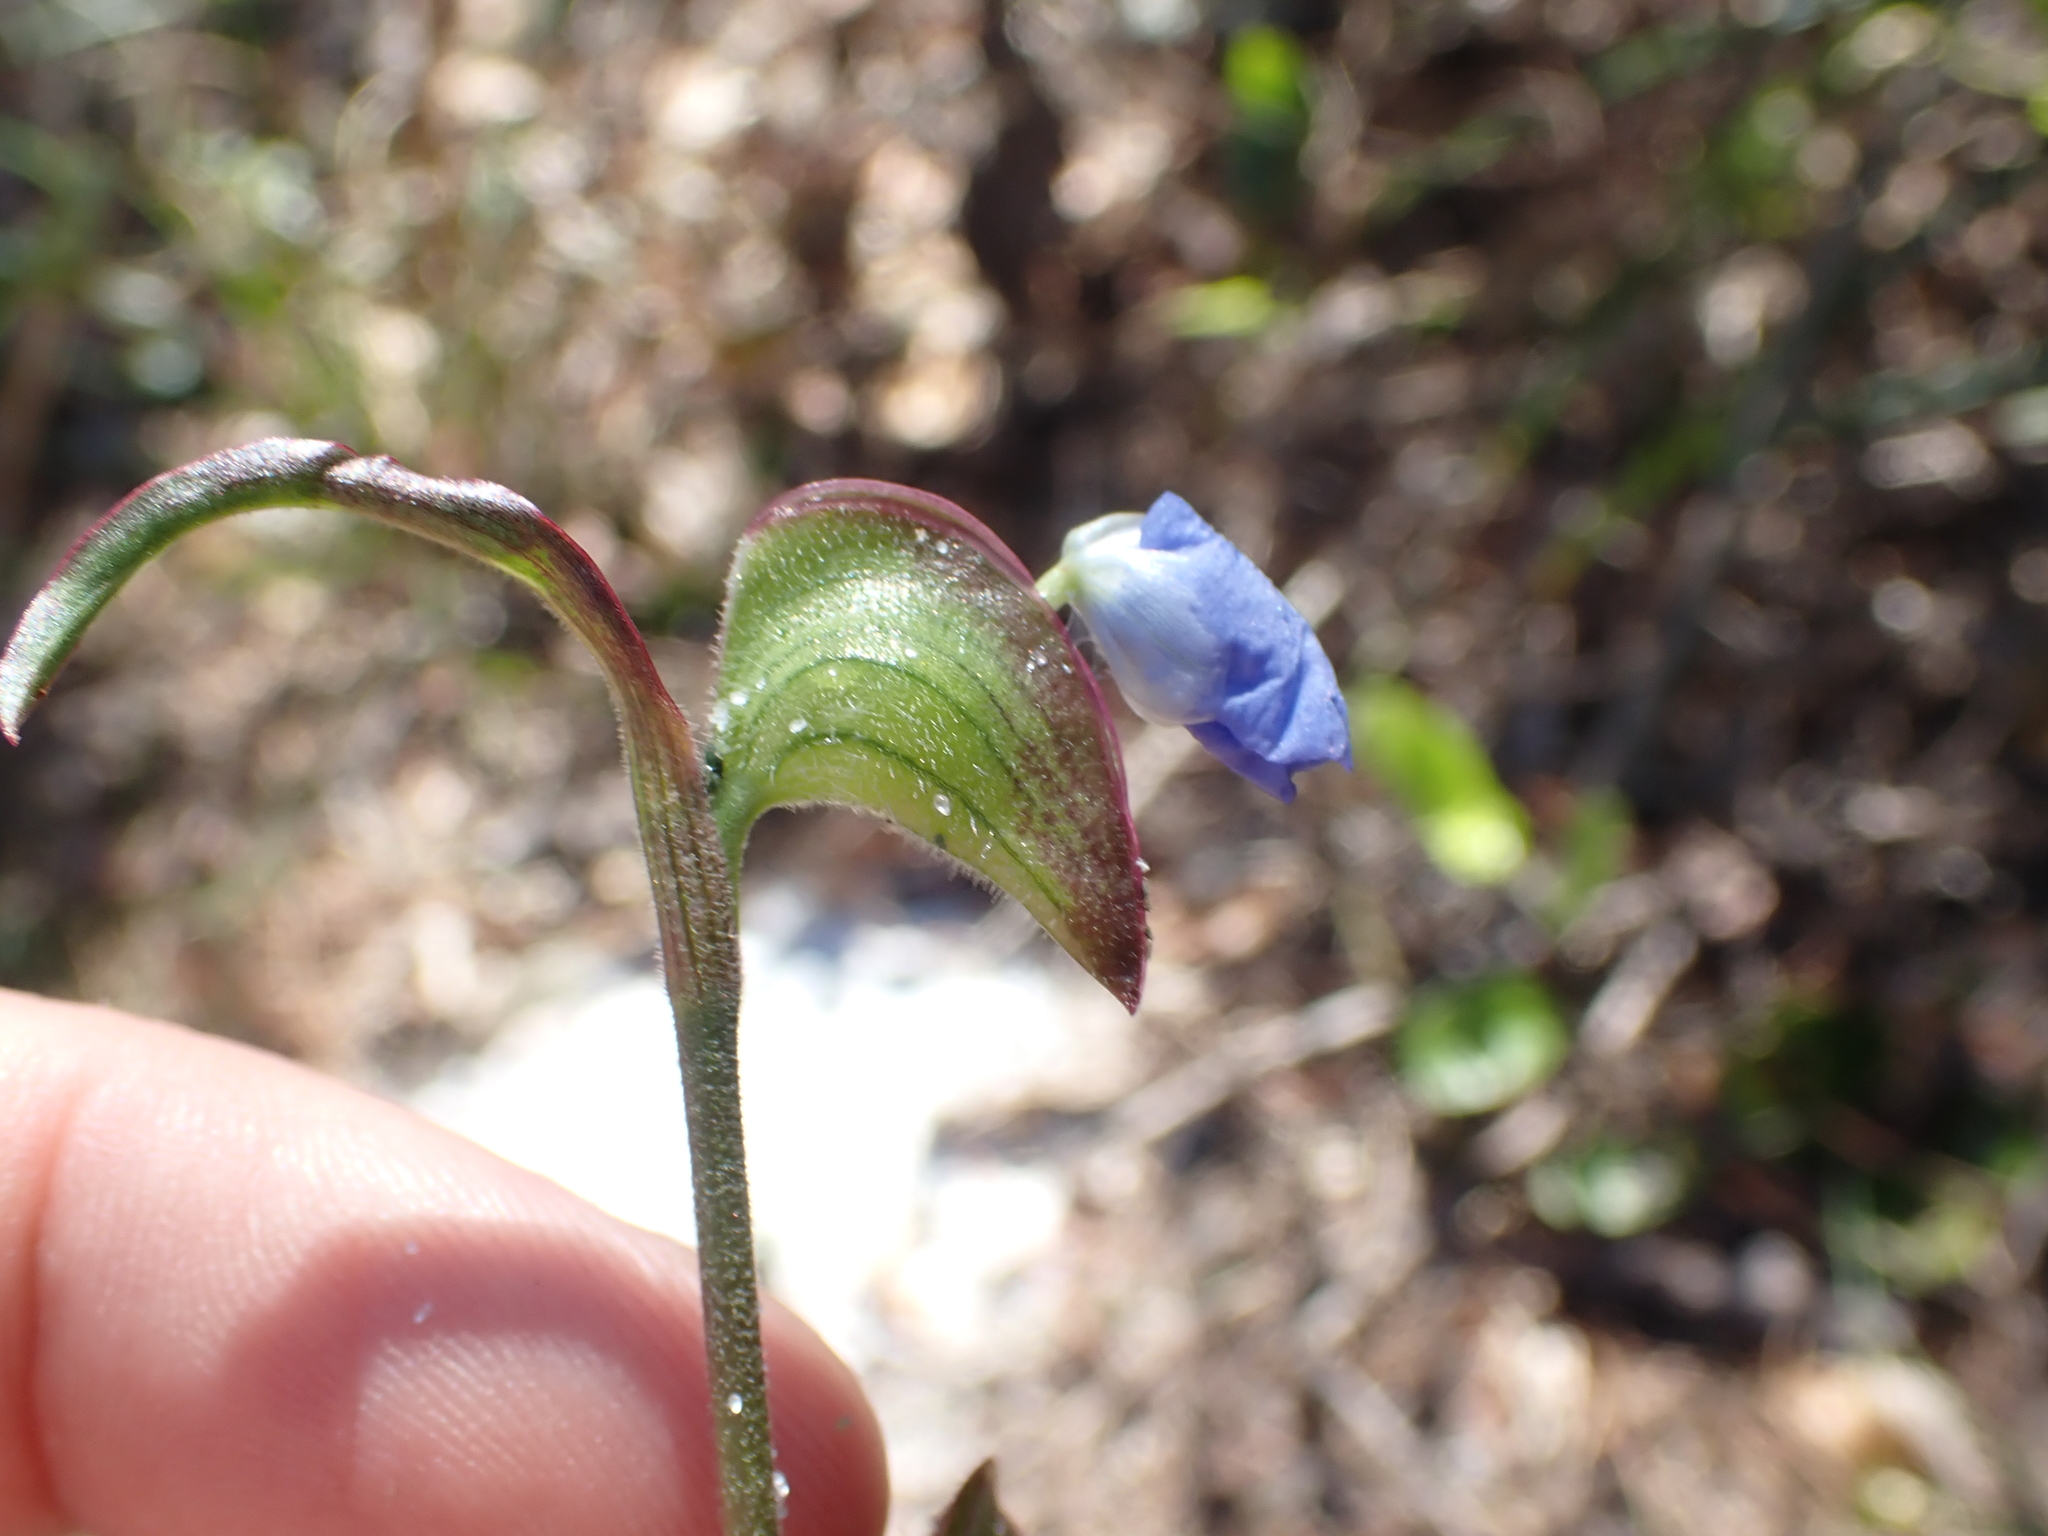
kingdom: Plantae
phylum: Tracheophyta
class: Liliopsida
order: Commelinales
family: Commelinaceae
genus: Commelina
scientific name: Commelina erecta
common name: Blousel blommetjie
